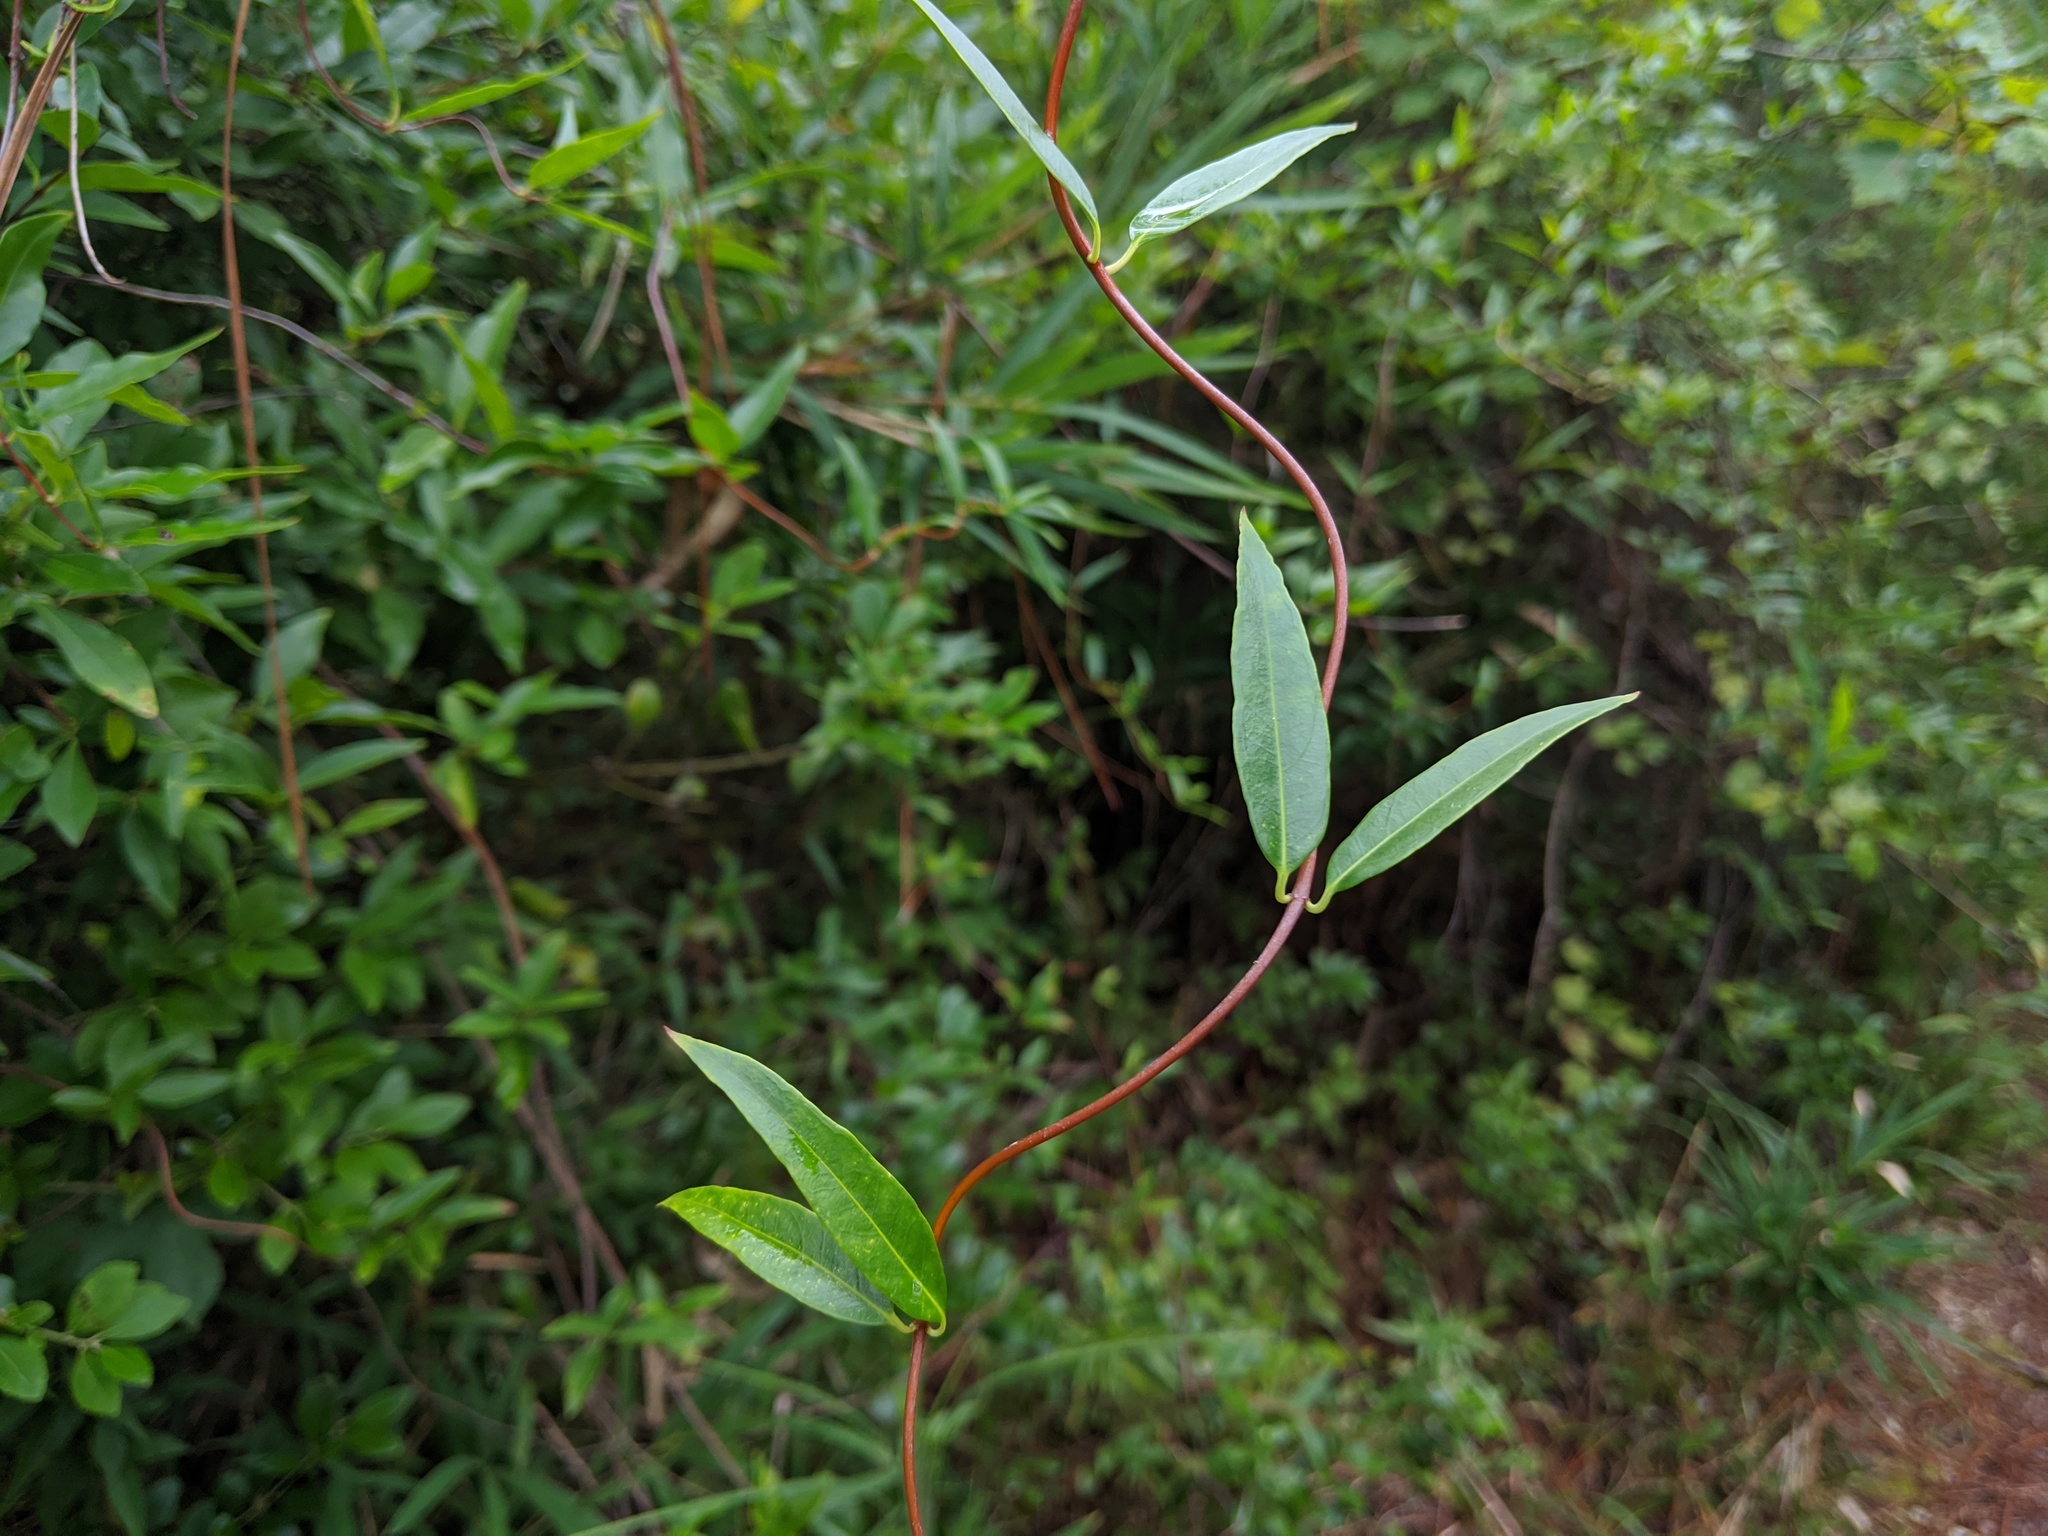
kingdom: Plantae
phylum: Tracheophyta
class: Magnoliopsida
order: Gentianales
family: Gelsemiaceae
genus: Gelsemium
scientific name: Gelsemium sempervirens
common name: Carolina-jasmine
